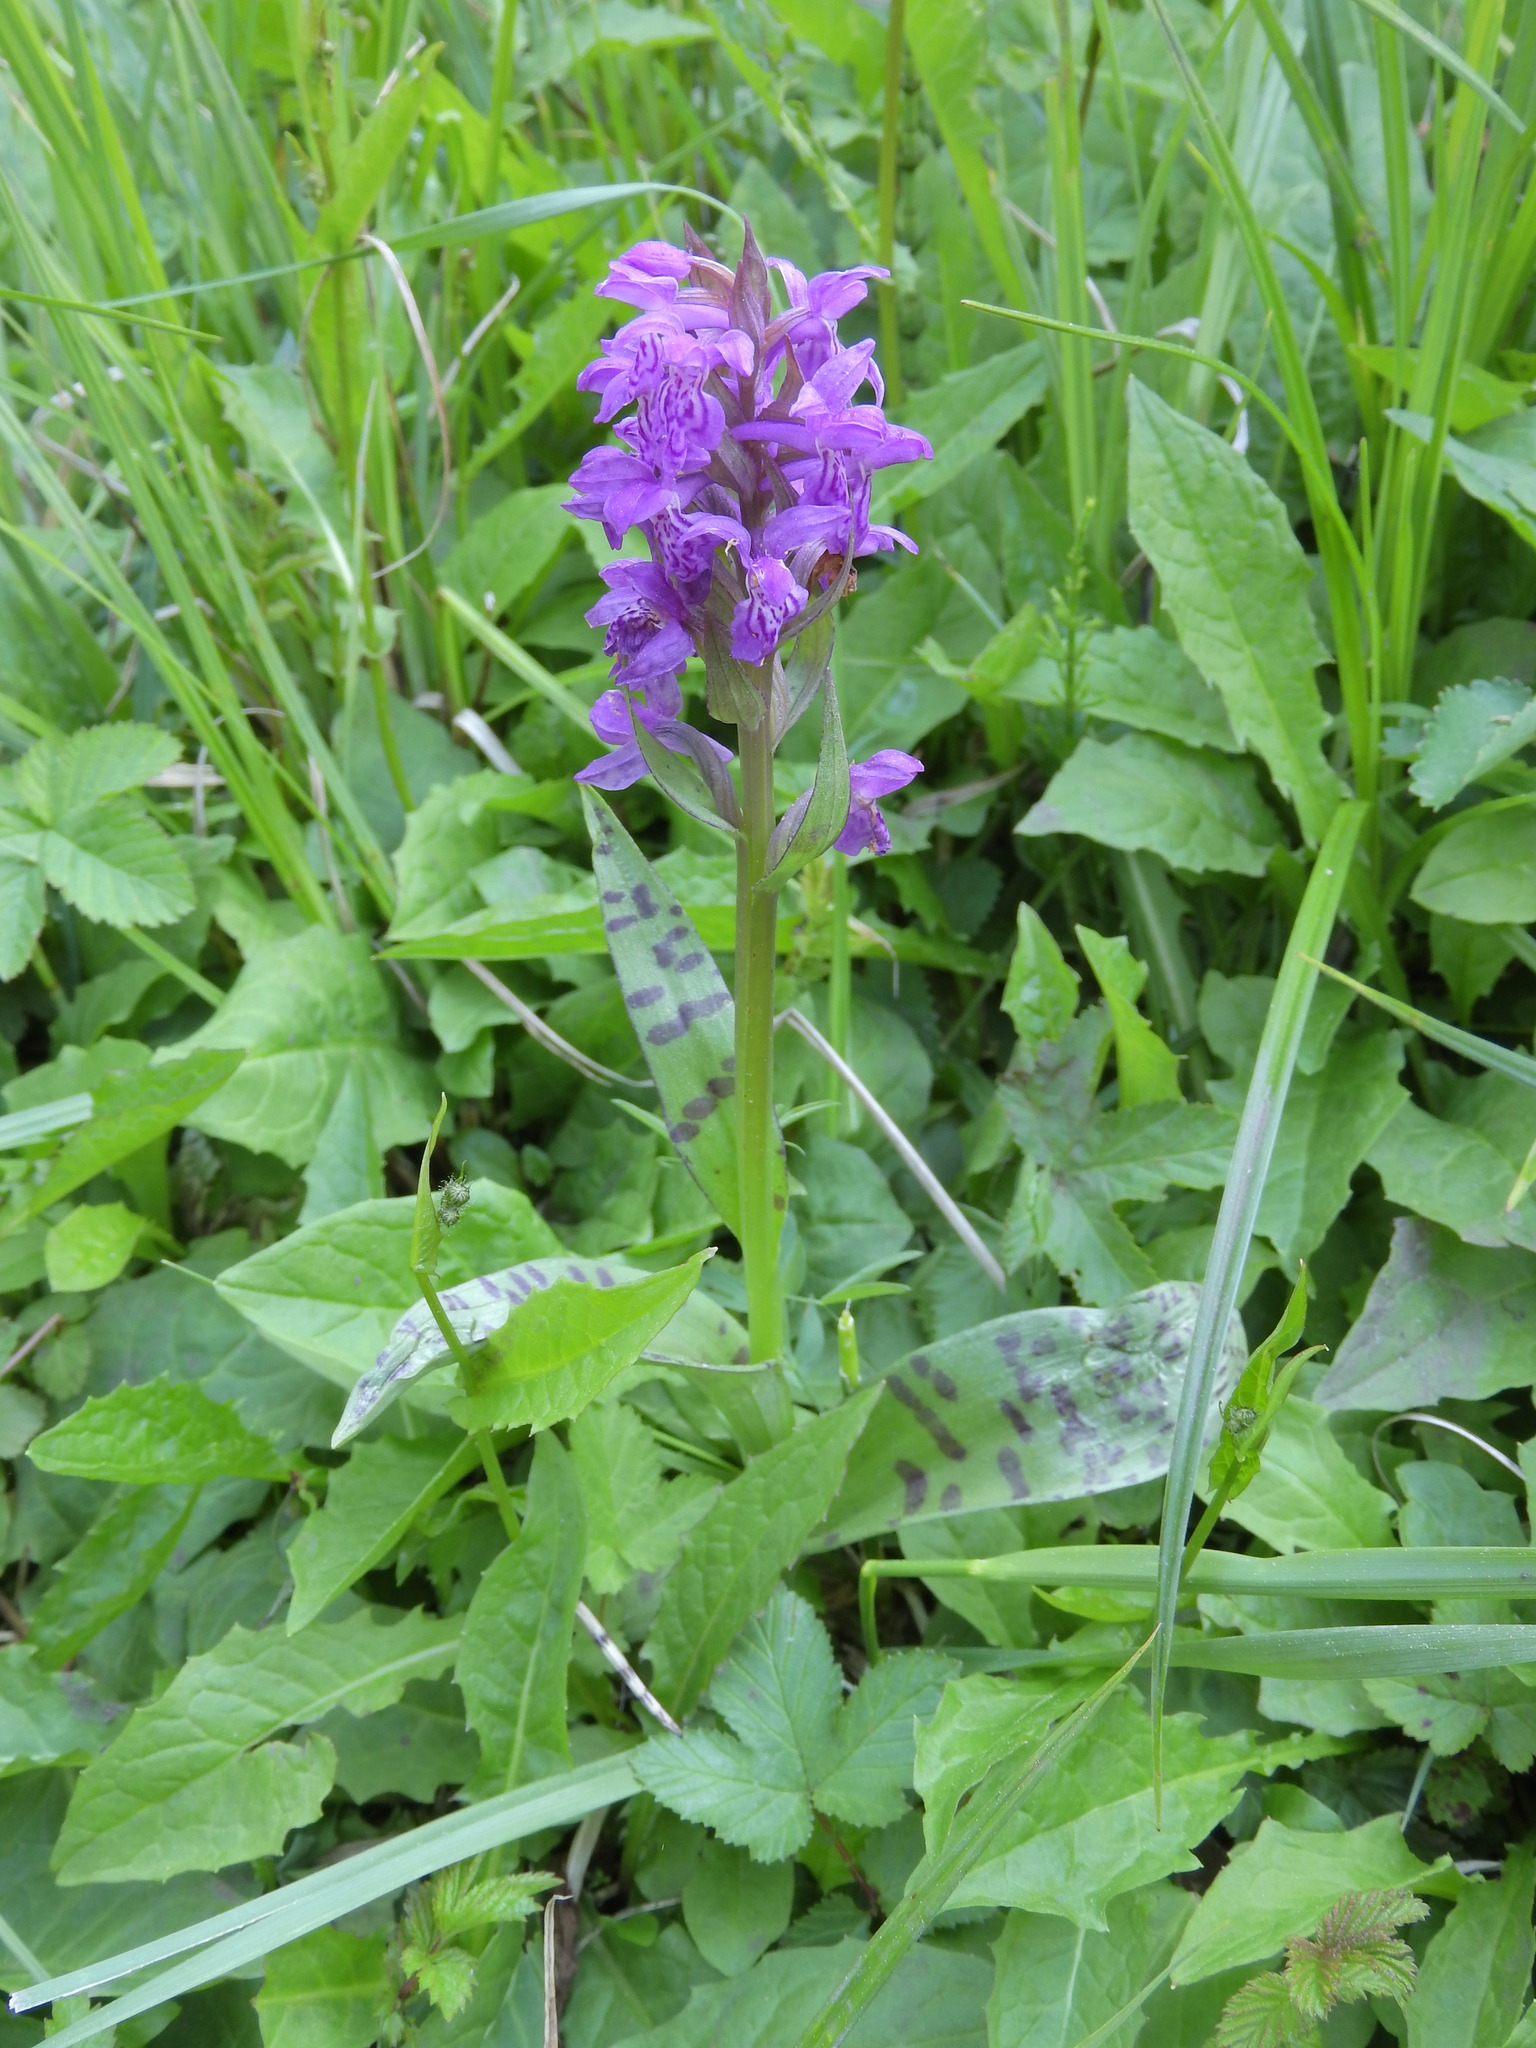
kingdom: Plantae
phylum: Tracheophyta
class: Liliopsida
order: Asparagales
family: Orchidaceae
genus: Dactylorhiza
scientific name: Dactylorhiza majalis
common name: Marsh orchid
